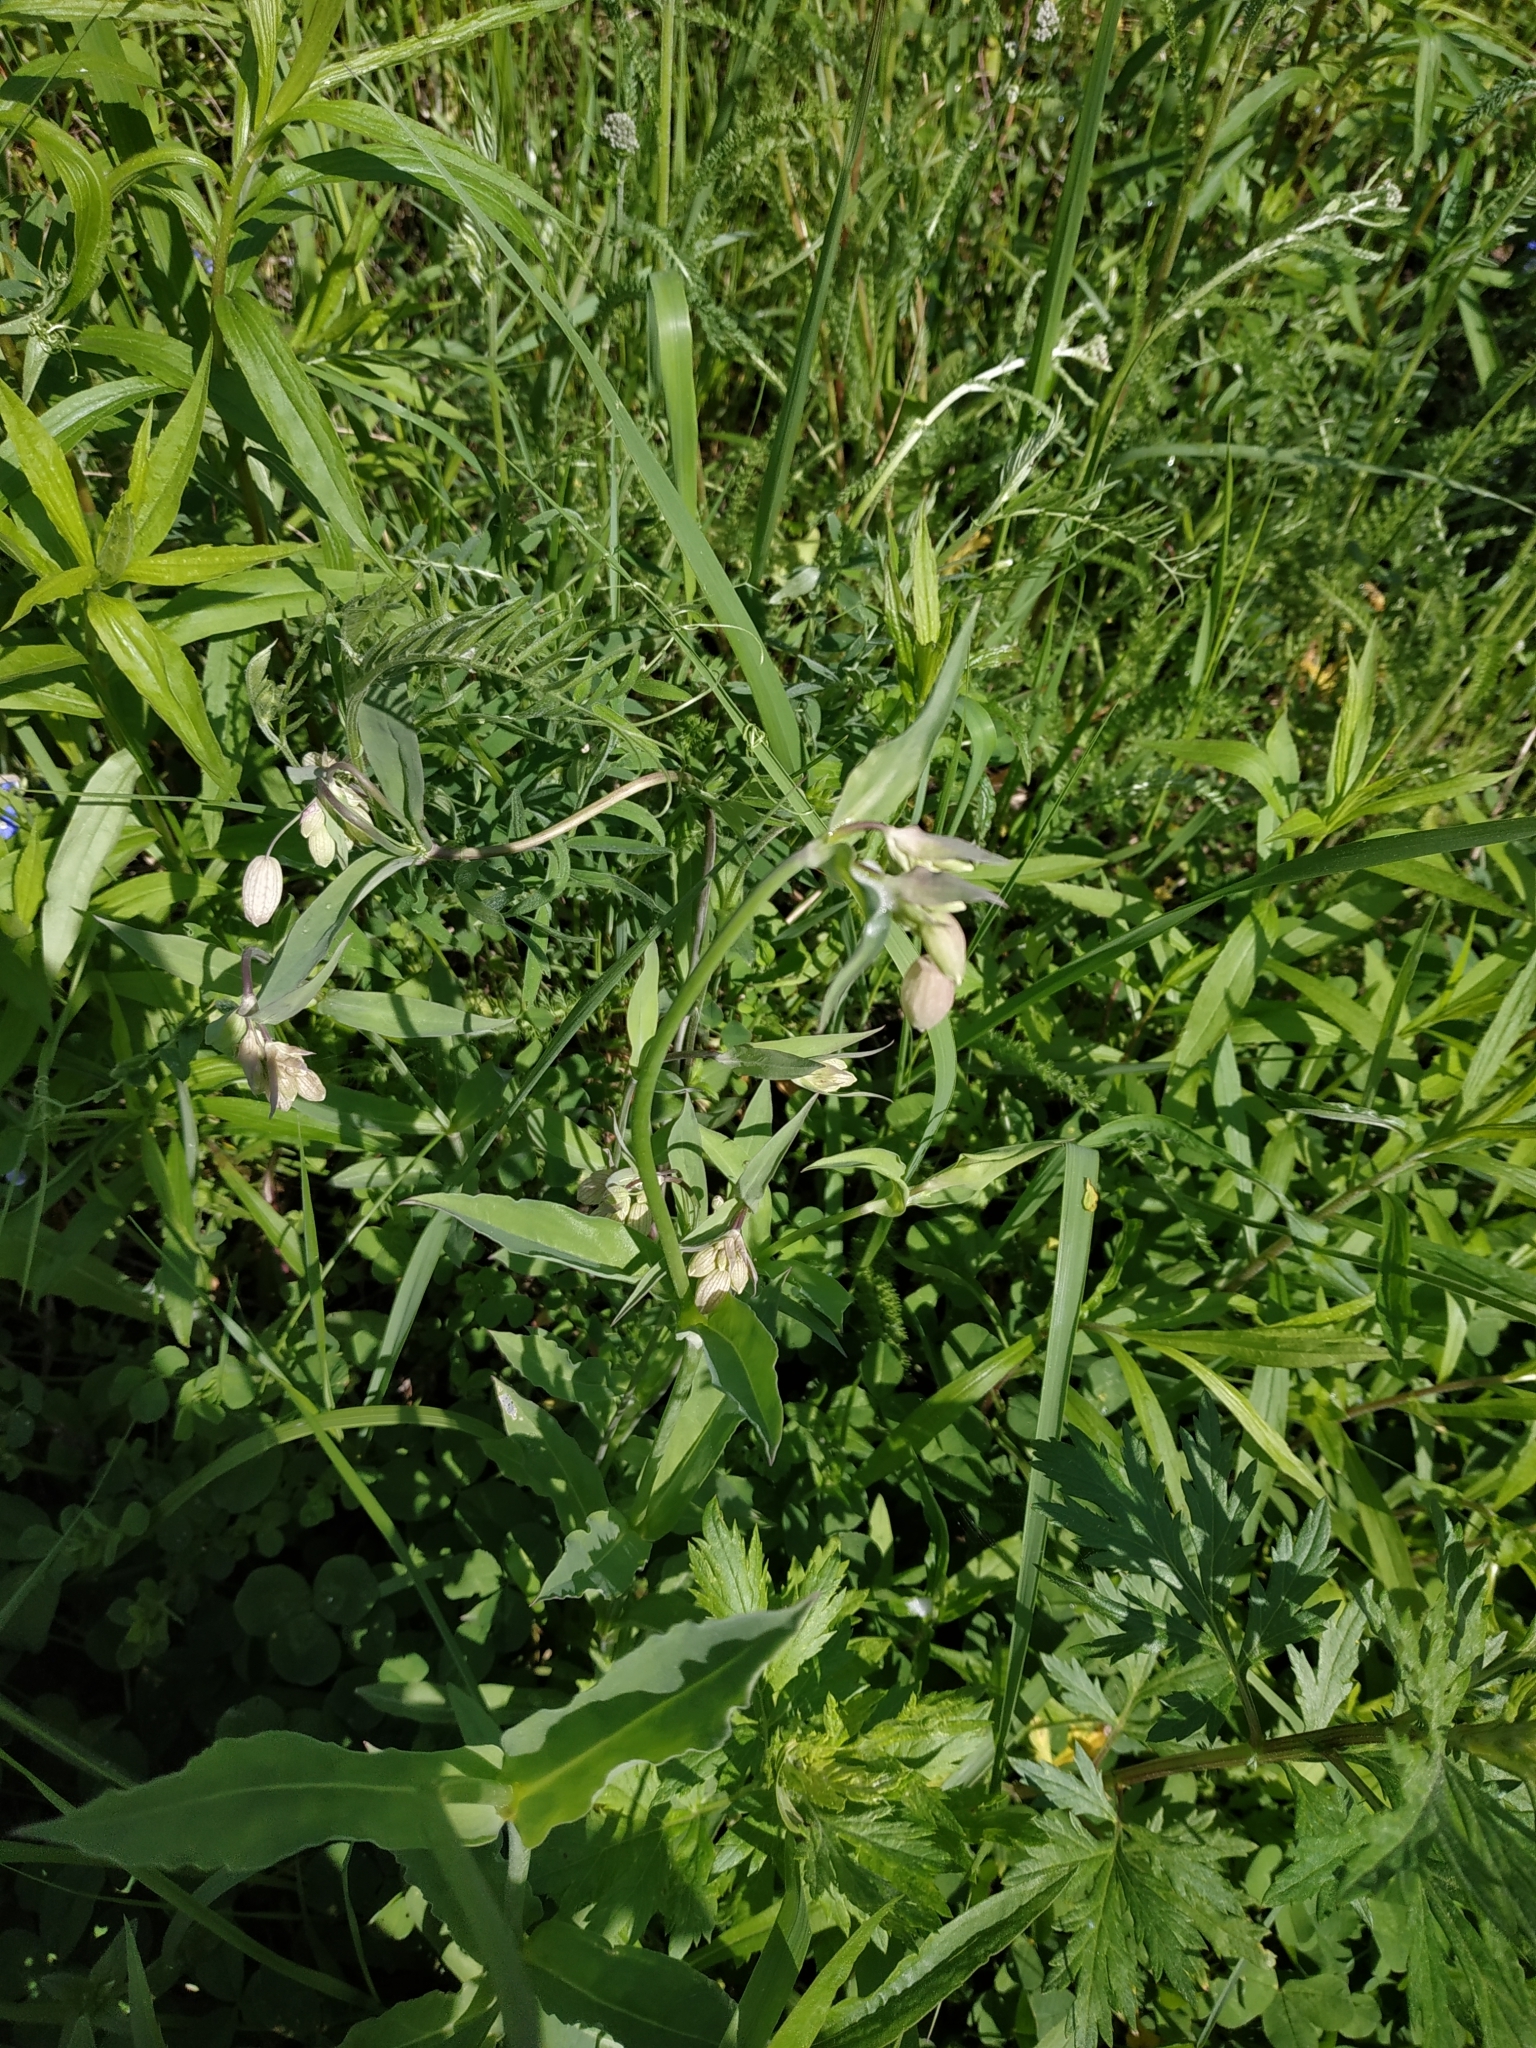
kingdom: Plantae
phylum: Tracheophyta
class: Magnoliopsida
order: Caryophyllales
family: Caryophyllaceae
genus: Silene
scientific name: Silene vulgaris
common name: Bladder campion
